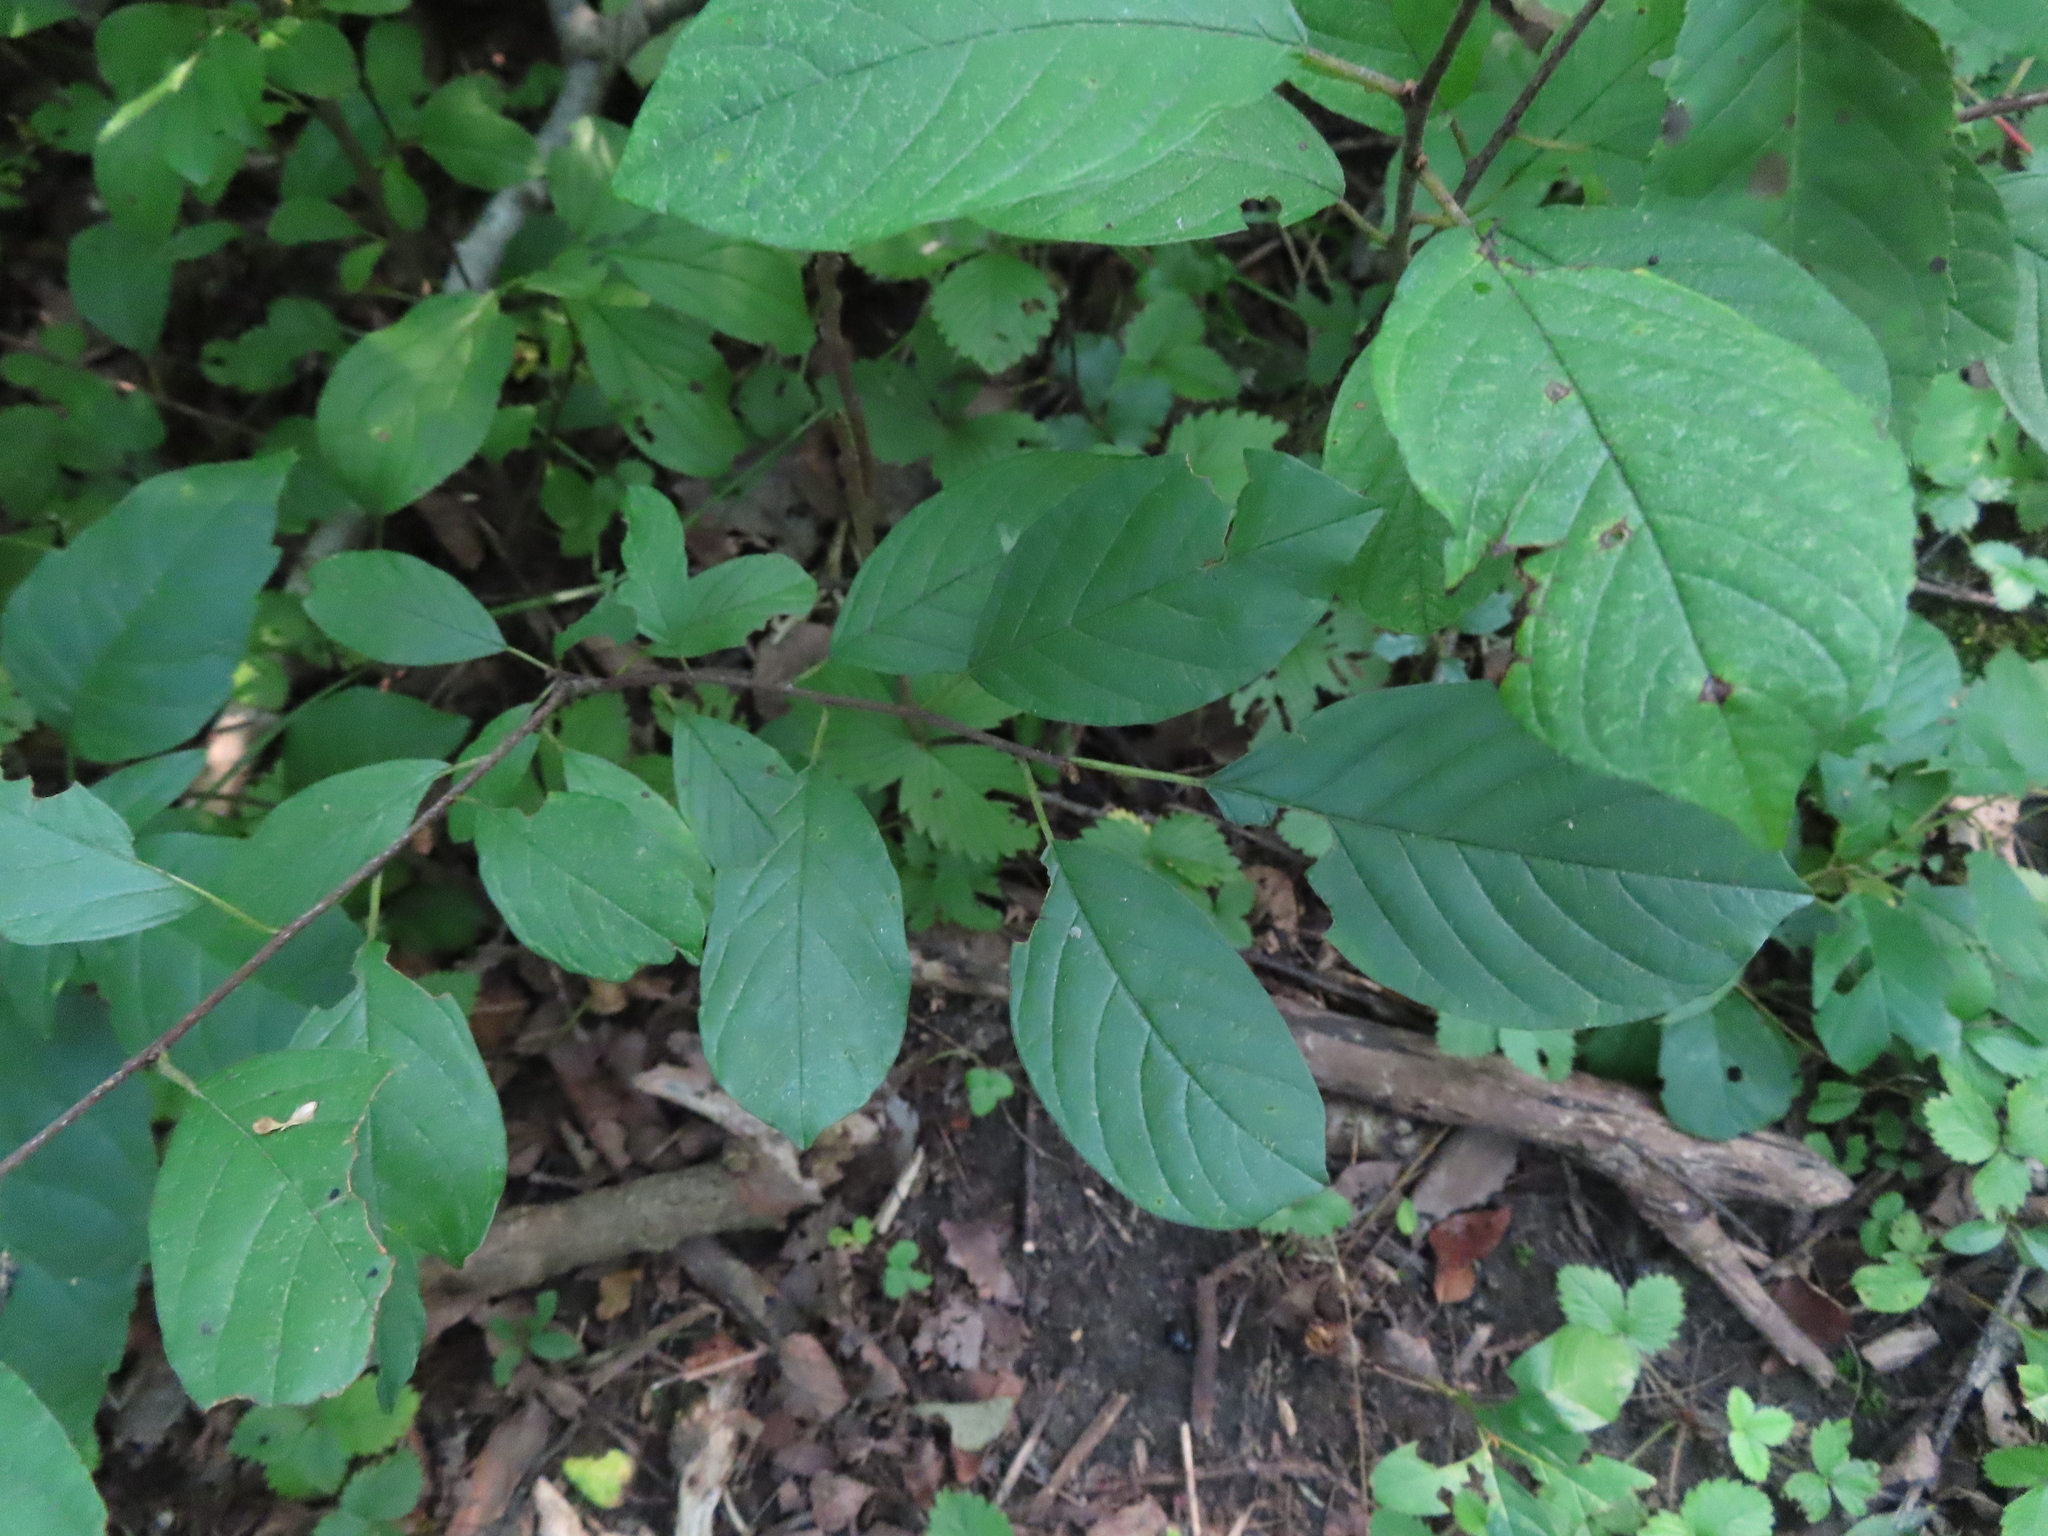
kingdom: Plantae
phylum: Tracheophyta
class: Magnoliopsida
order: Rosales
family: Rhamnaceae
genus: Frangula
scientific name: Frangula alnus
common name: Alder buckthorn
